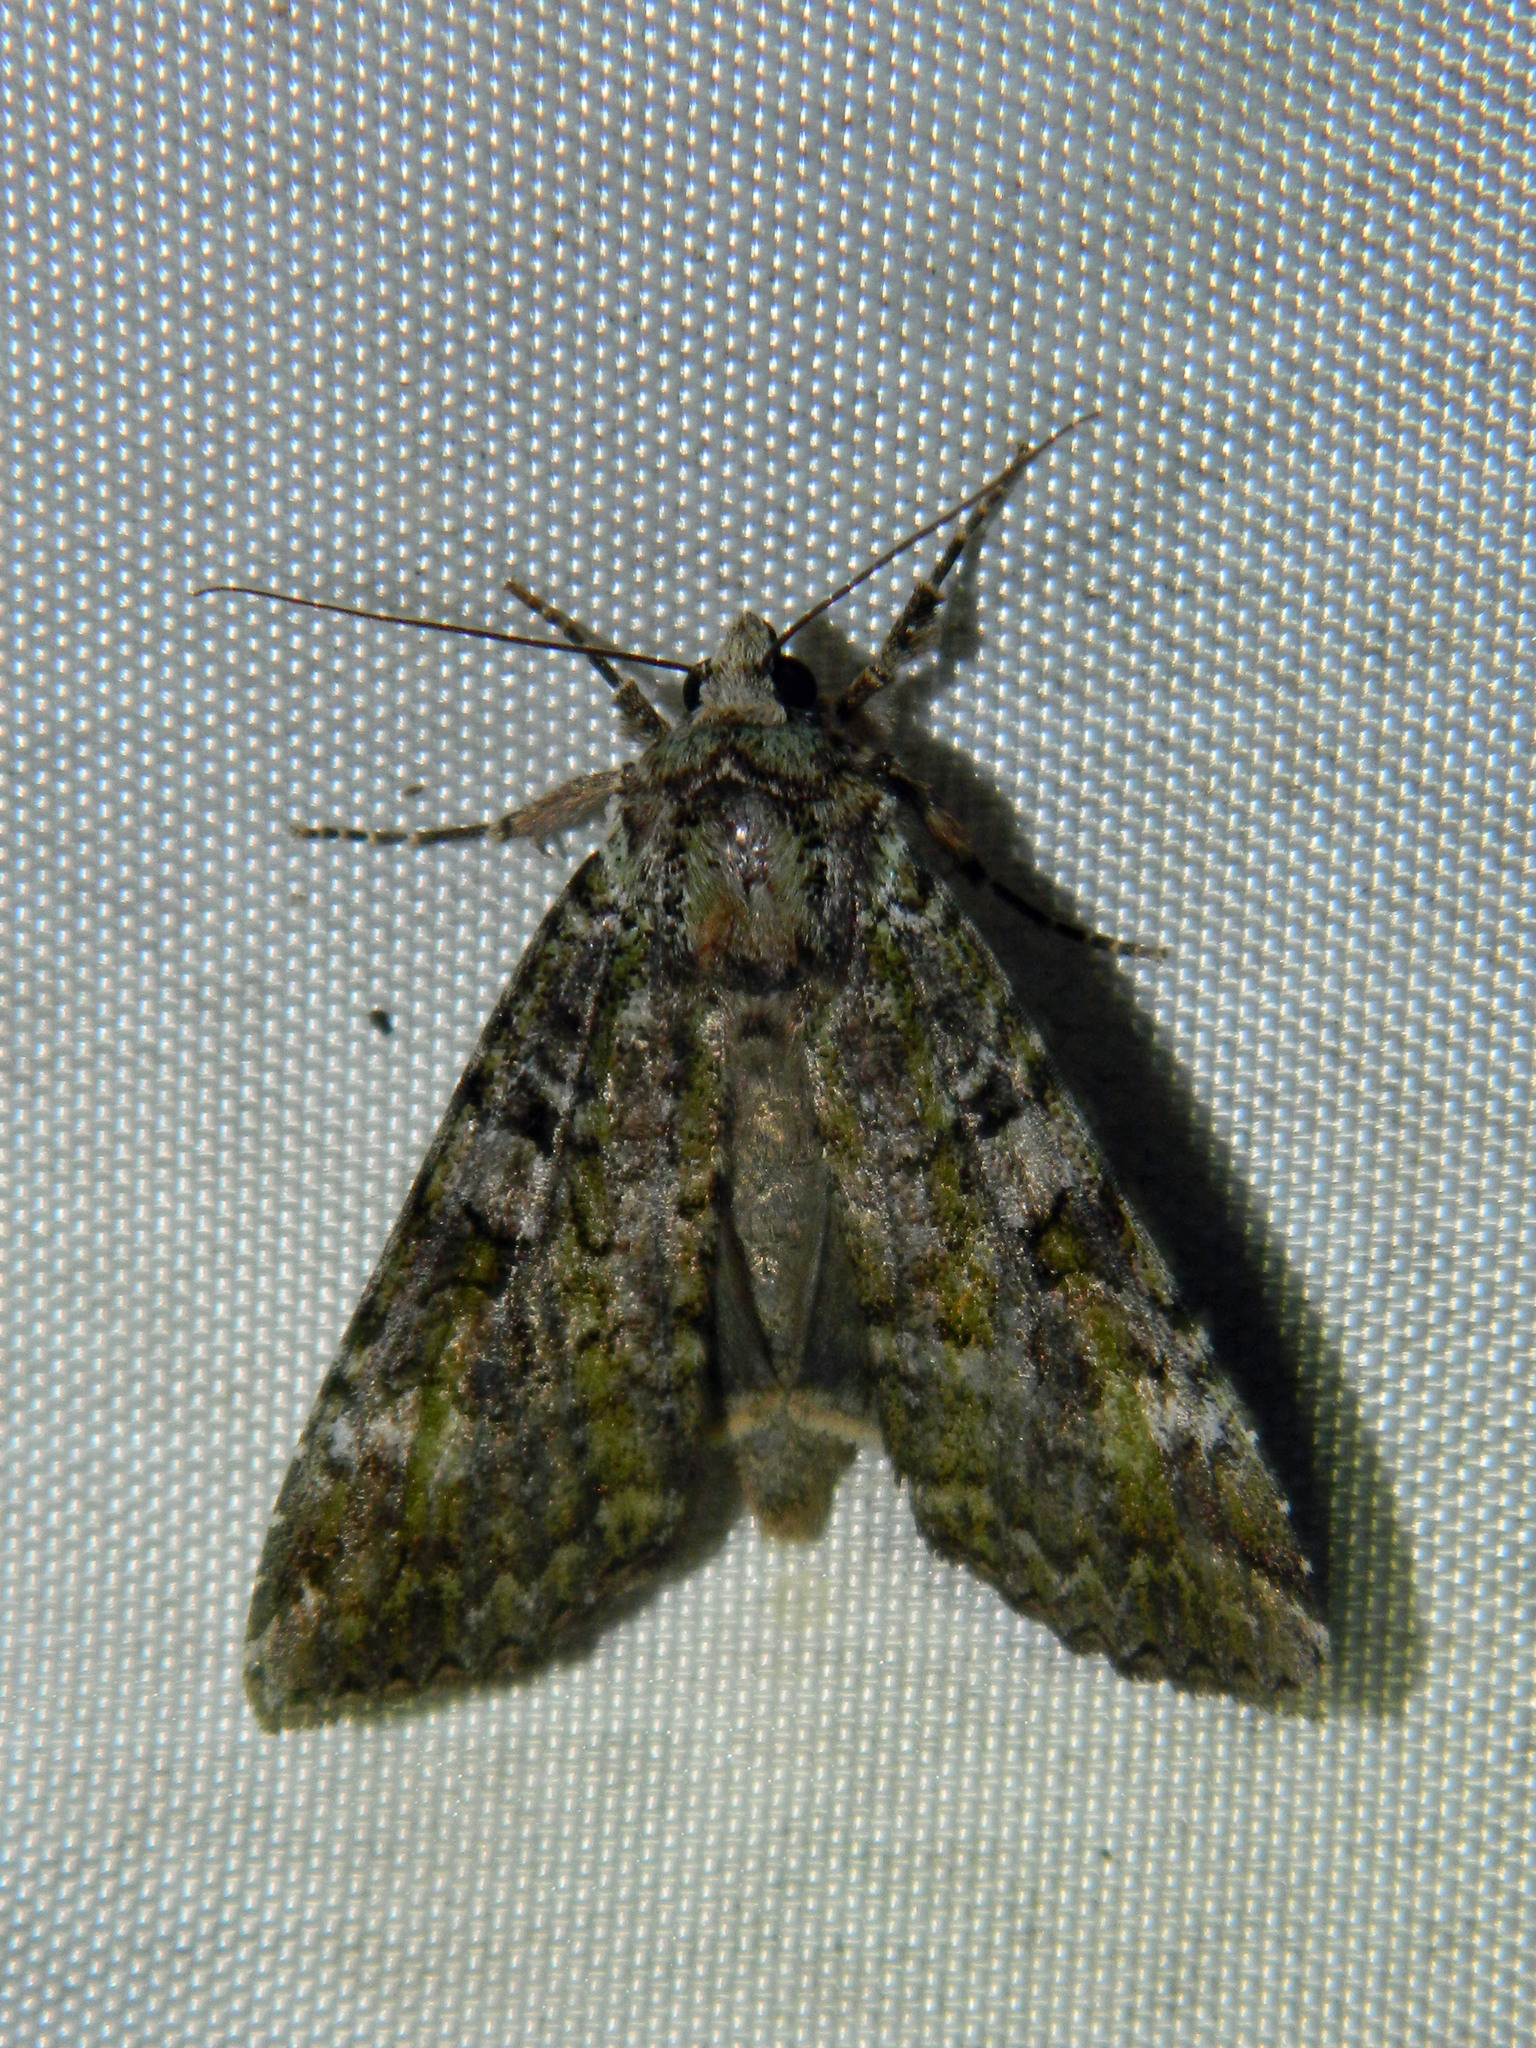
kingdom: Animalia
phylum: Arthropoda
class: Insecta
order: Lepidoptera
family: Noctuidae
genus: Anaplectoides
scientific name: Anaplectoides prasina
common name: Green arches
